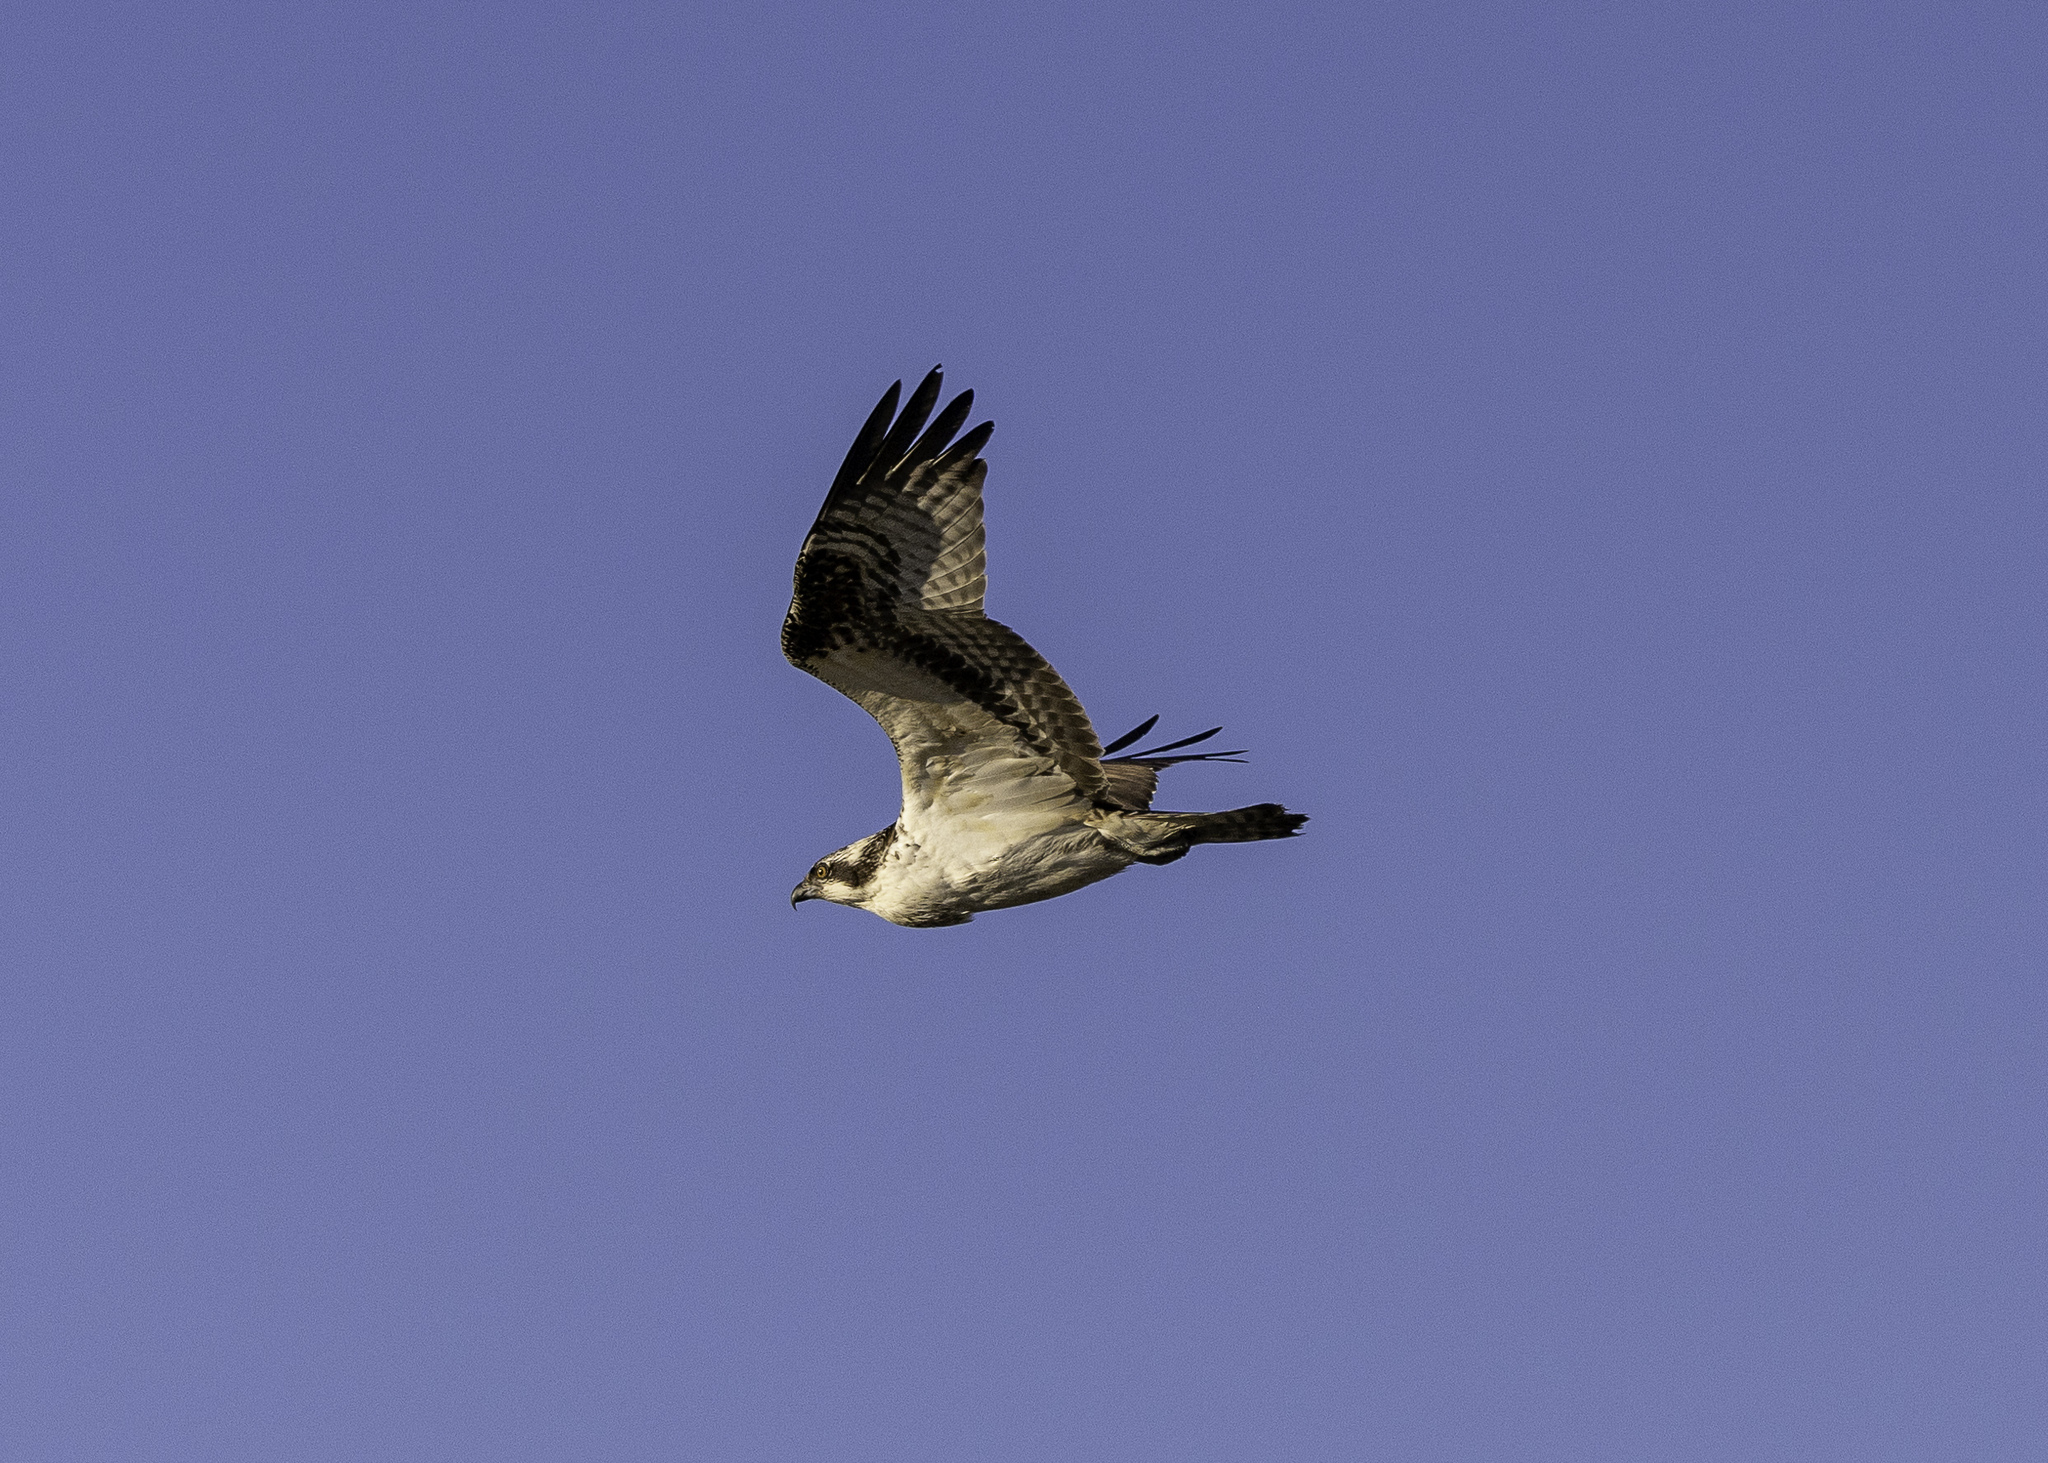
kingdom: Animalia
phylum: Chordata
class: Aves
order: Accipitriformes
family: Pandionidae
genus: Pandion
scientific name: Pandion haliaetus
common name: Osprey
